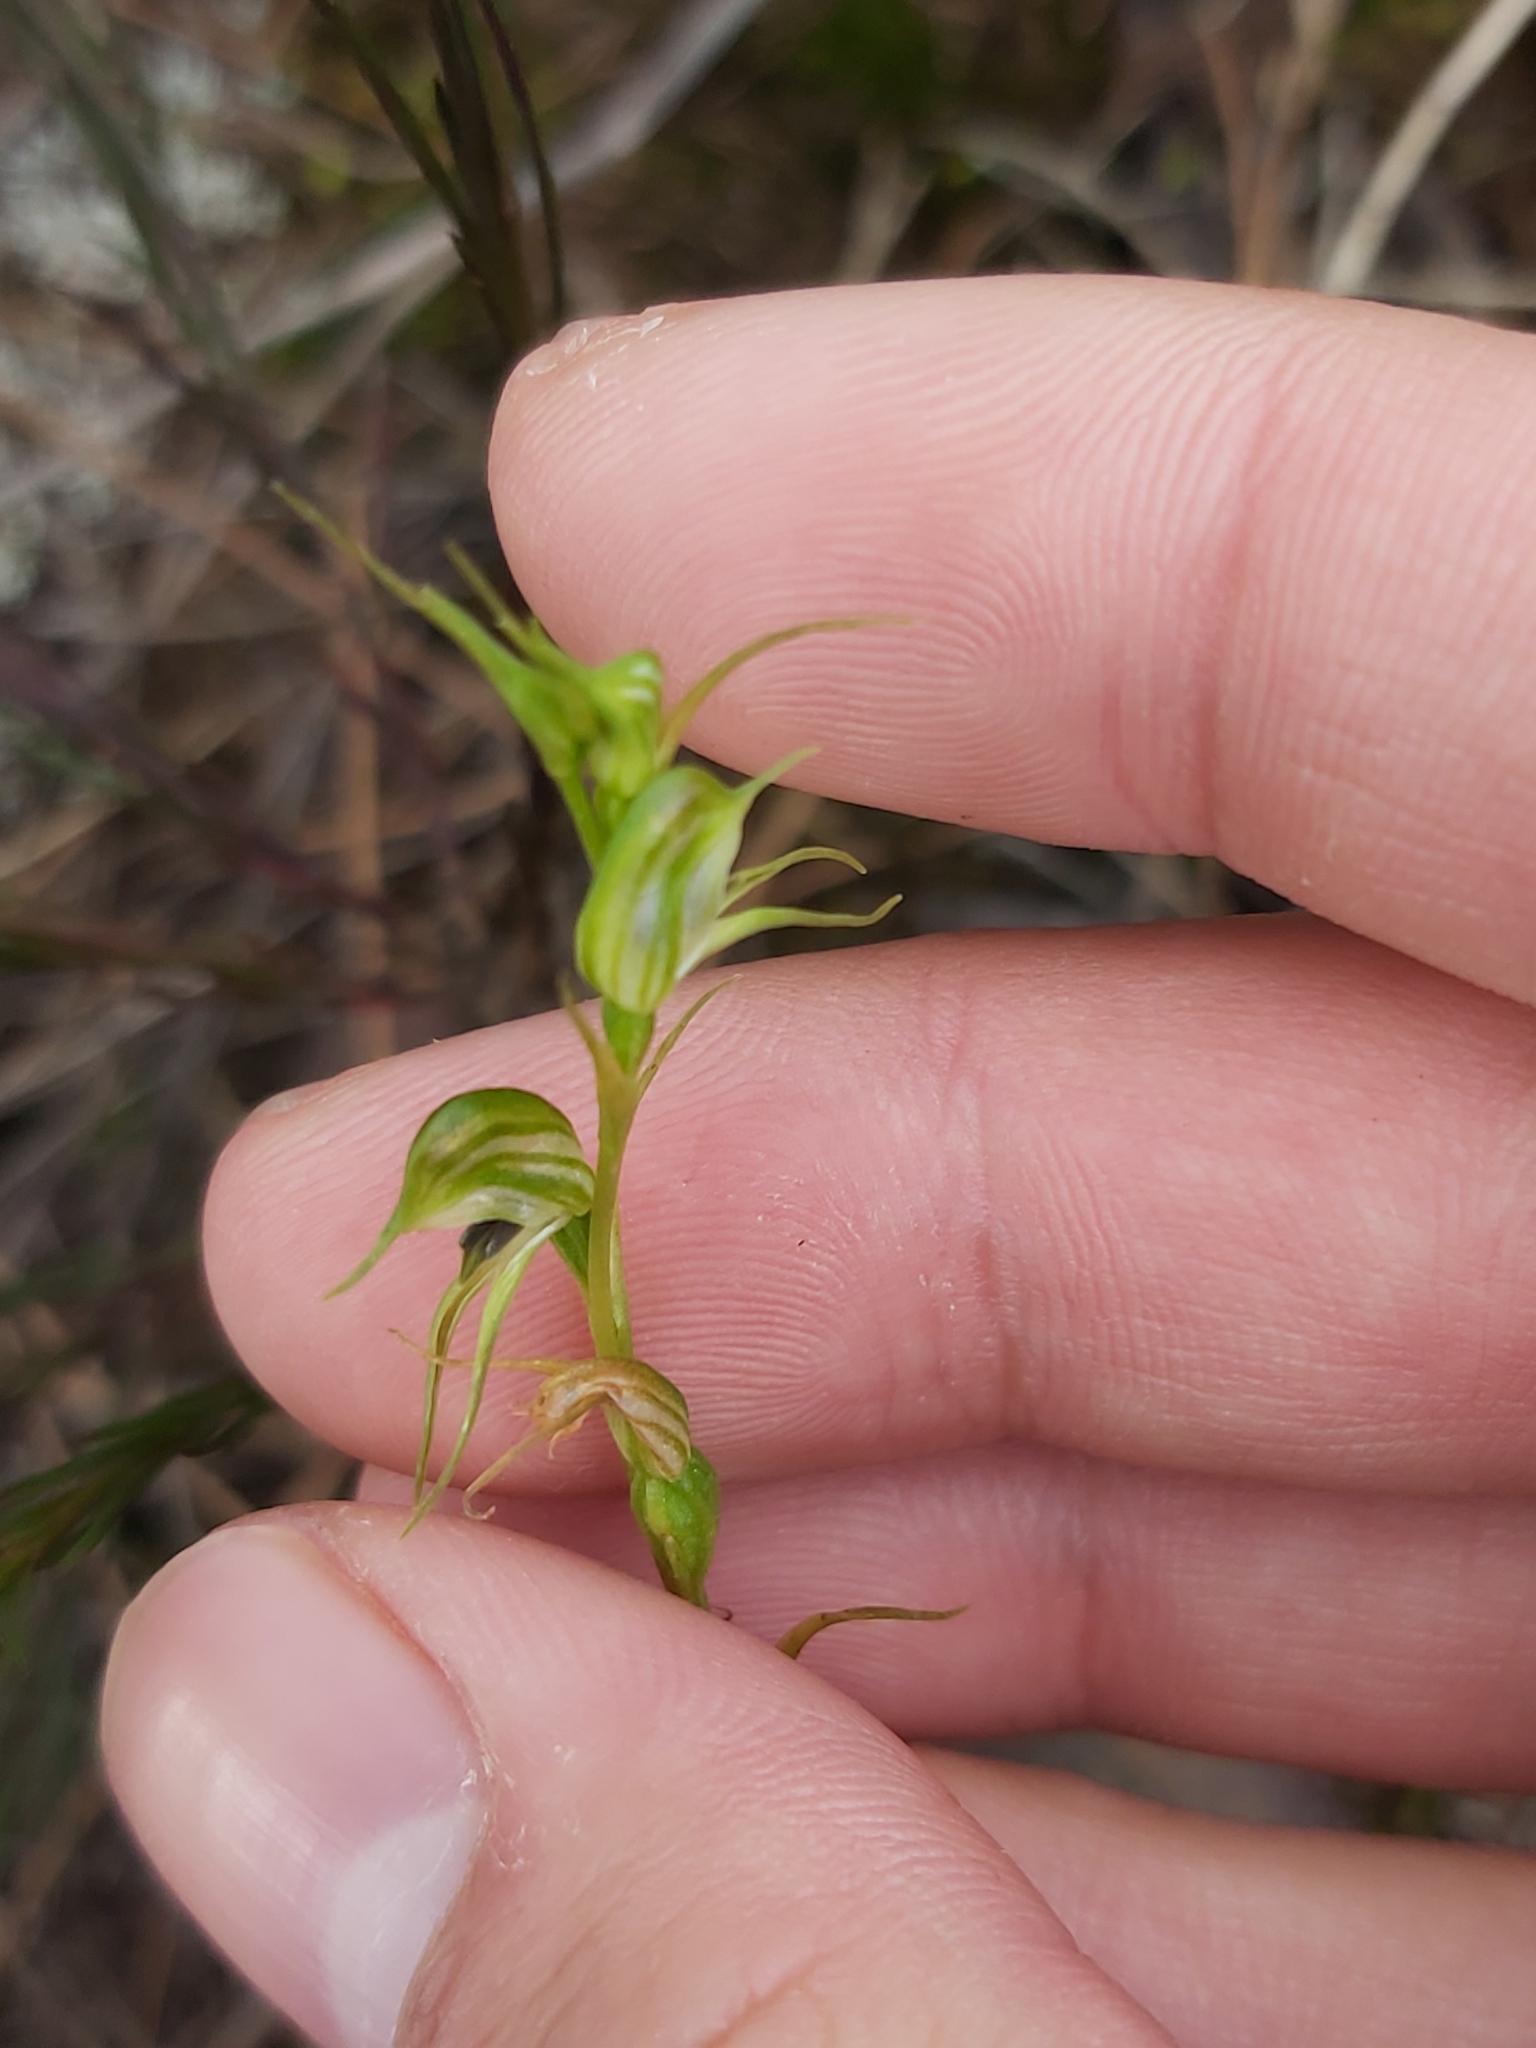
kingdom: Plantae
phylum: Tracheophyta
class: Liliopsida
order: Asparagales
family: Orchidaceae
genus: Pterostylis
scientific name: Pterostylis daintreana
